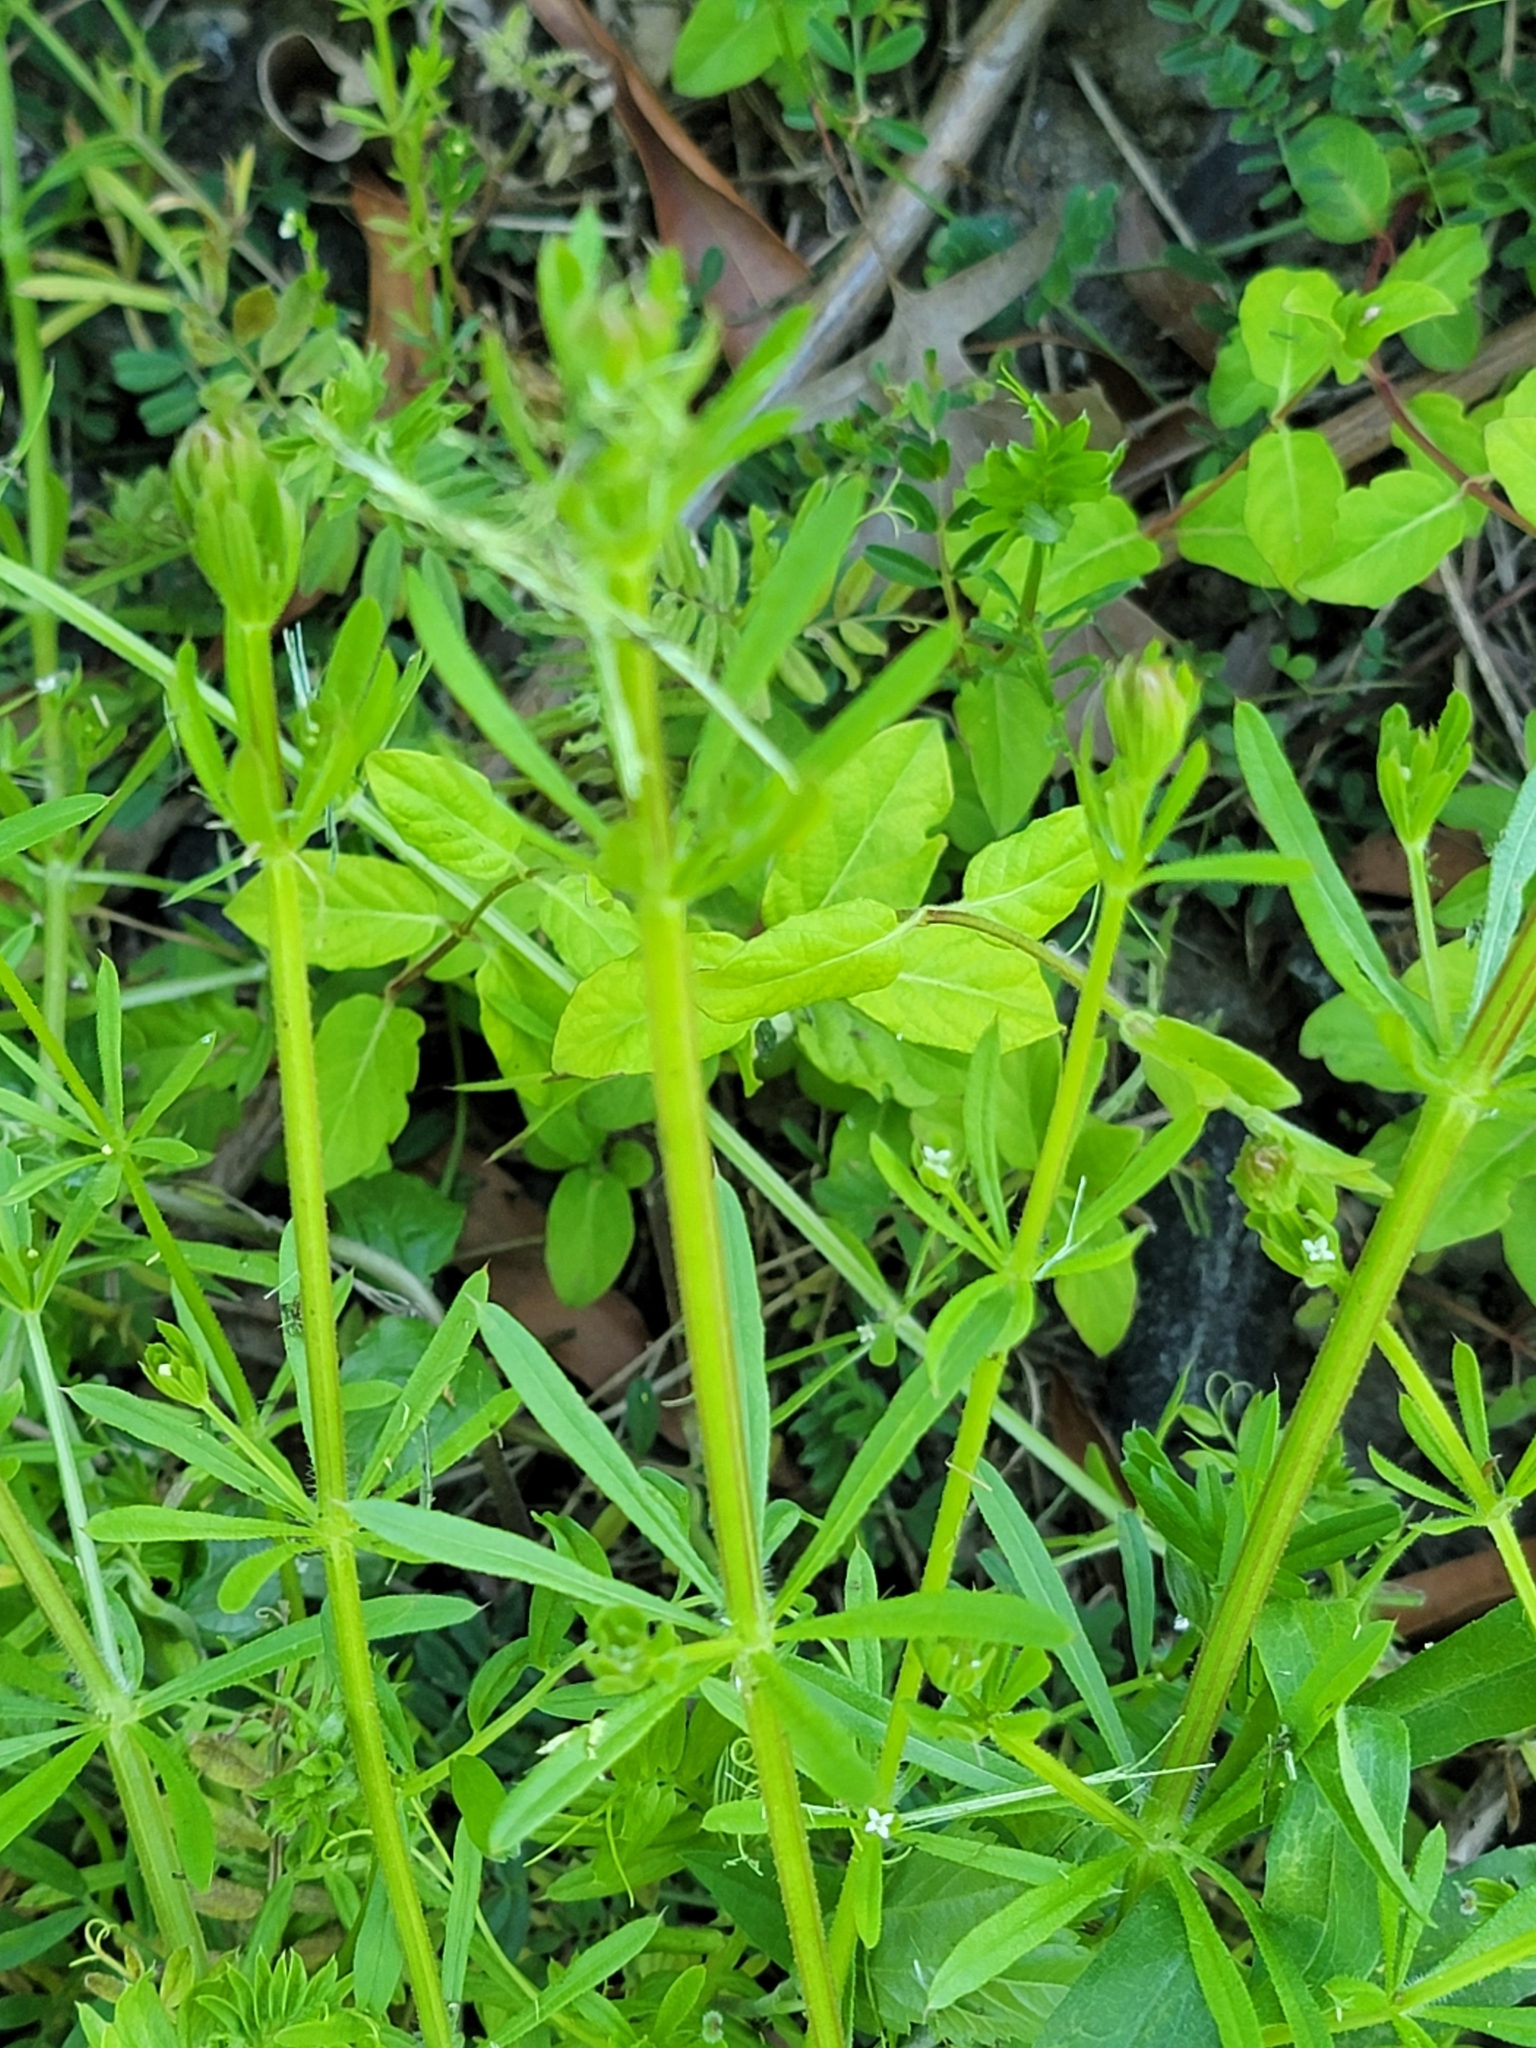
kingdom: Plantae
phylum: Tracheophyta
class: Magnoliopsida
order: Gentianales
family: Rubiaceae
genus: Galium
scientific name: Galium aparine
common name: Cleavers
